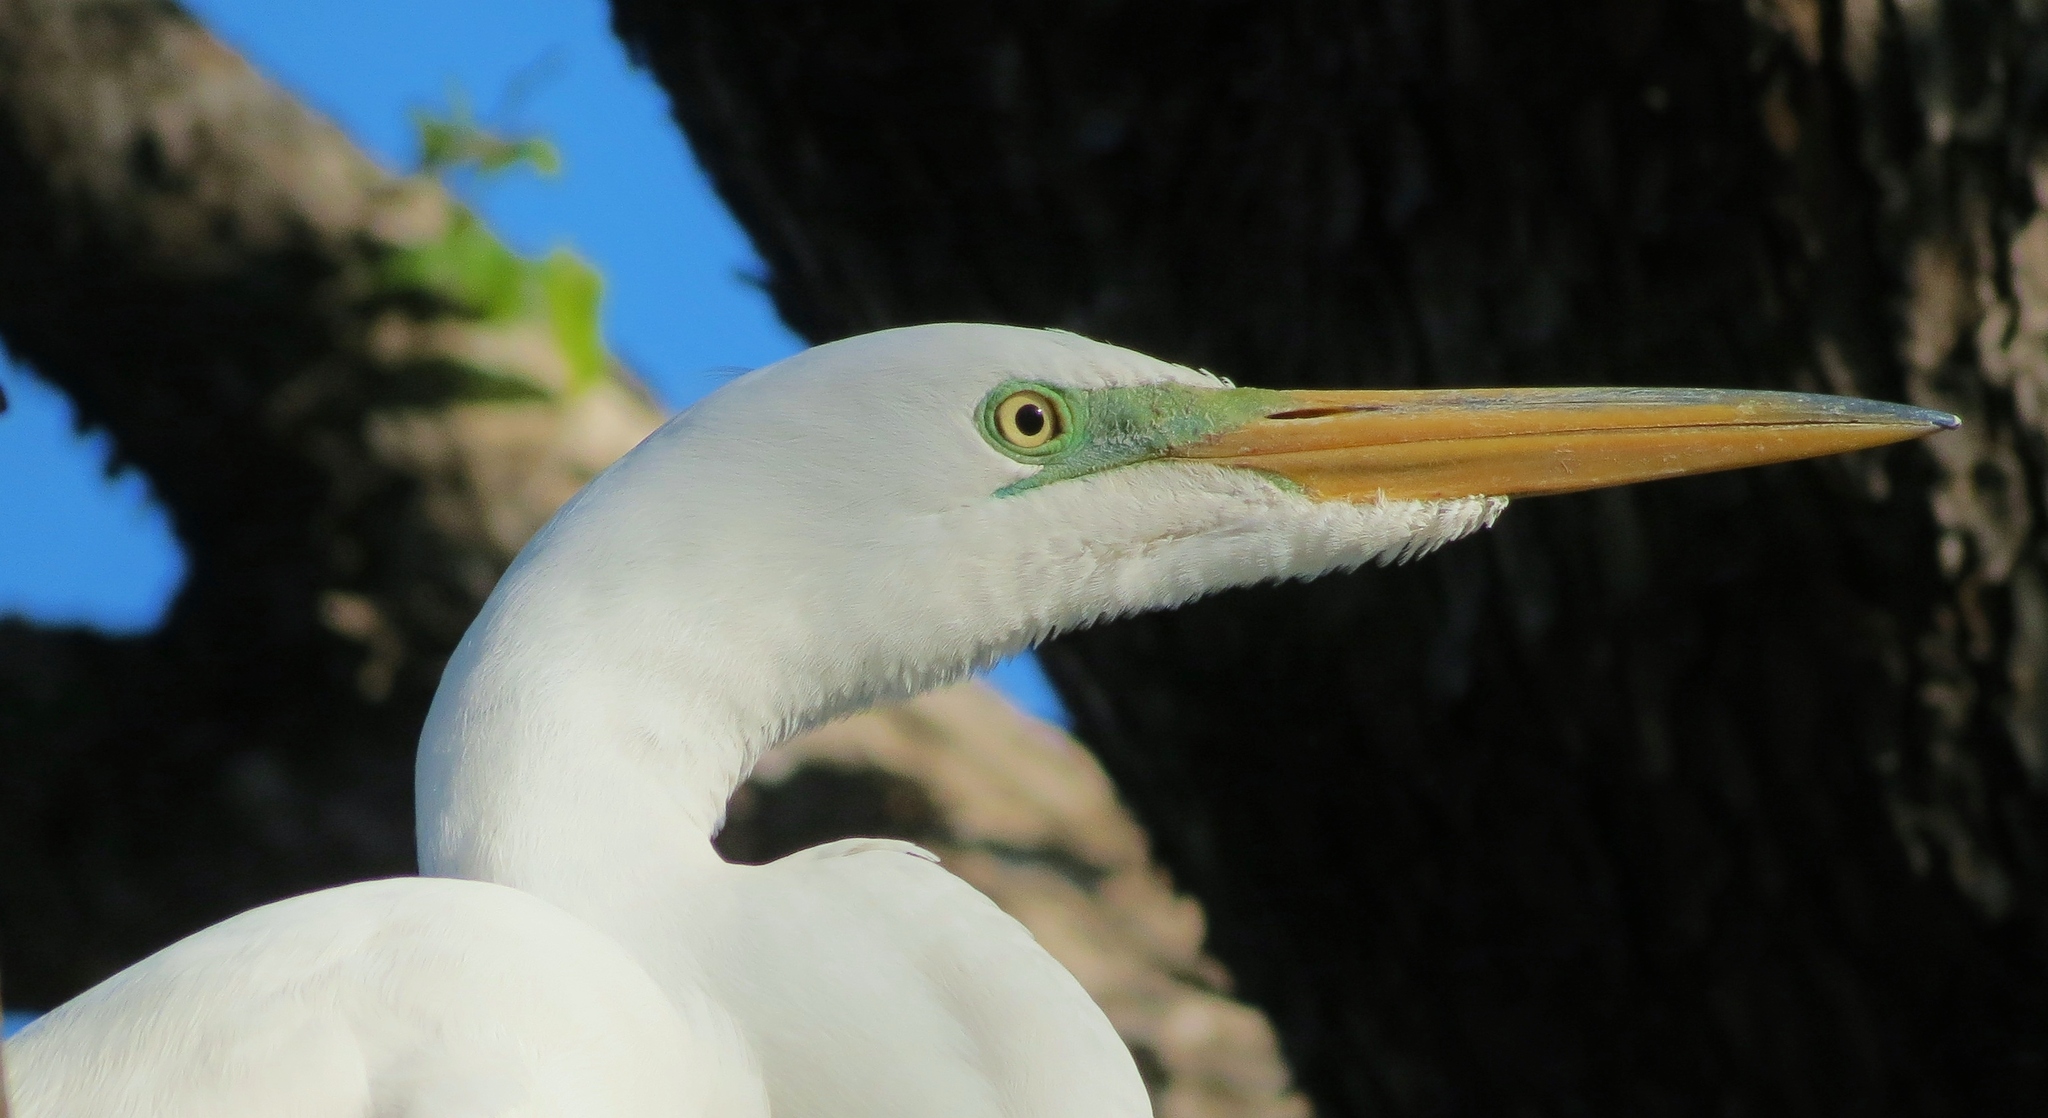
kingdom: Animalia
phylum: Chordata
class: Aves
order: Pelecaniformes
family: Ardeidae
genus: Ardea
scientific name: Ardea alba
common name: Great egret
